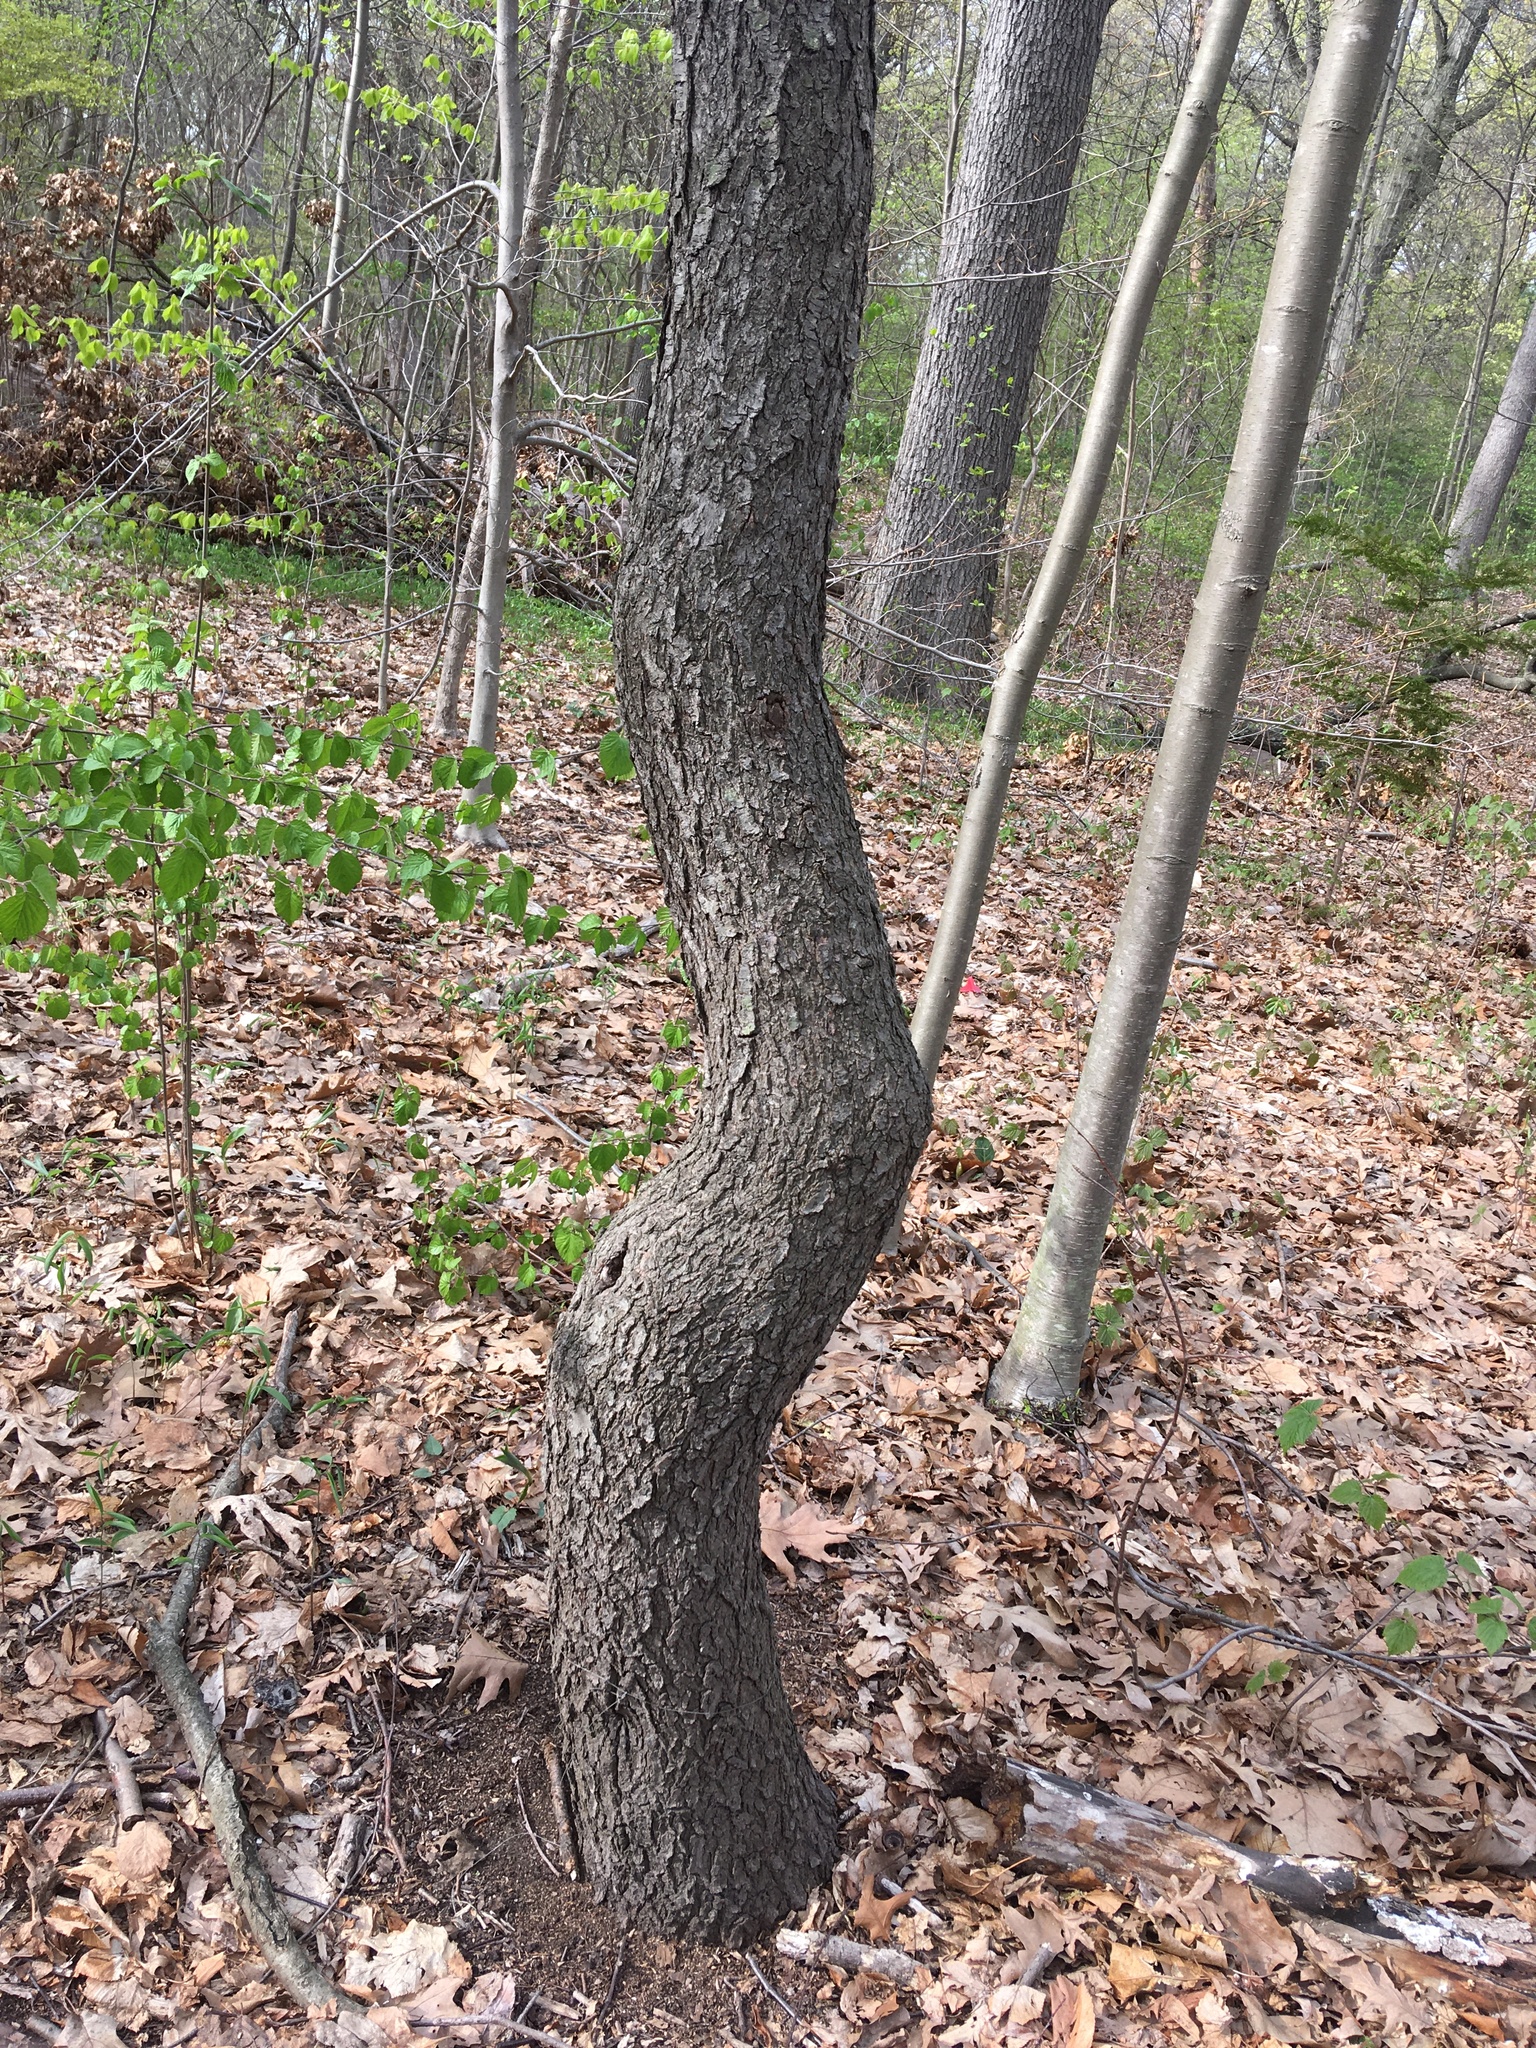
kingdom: Plantae
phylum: Tracheophyta
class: Magnoliopsida
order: Rosales
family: Rosaceae
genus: Prunus
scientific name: Prunus serotina
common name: Black cherry
